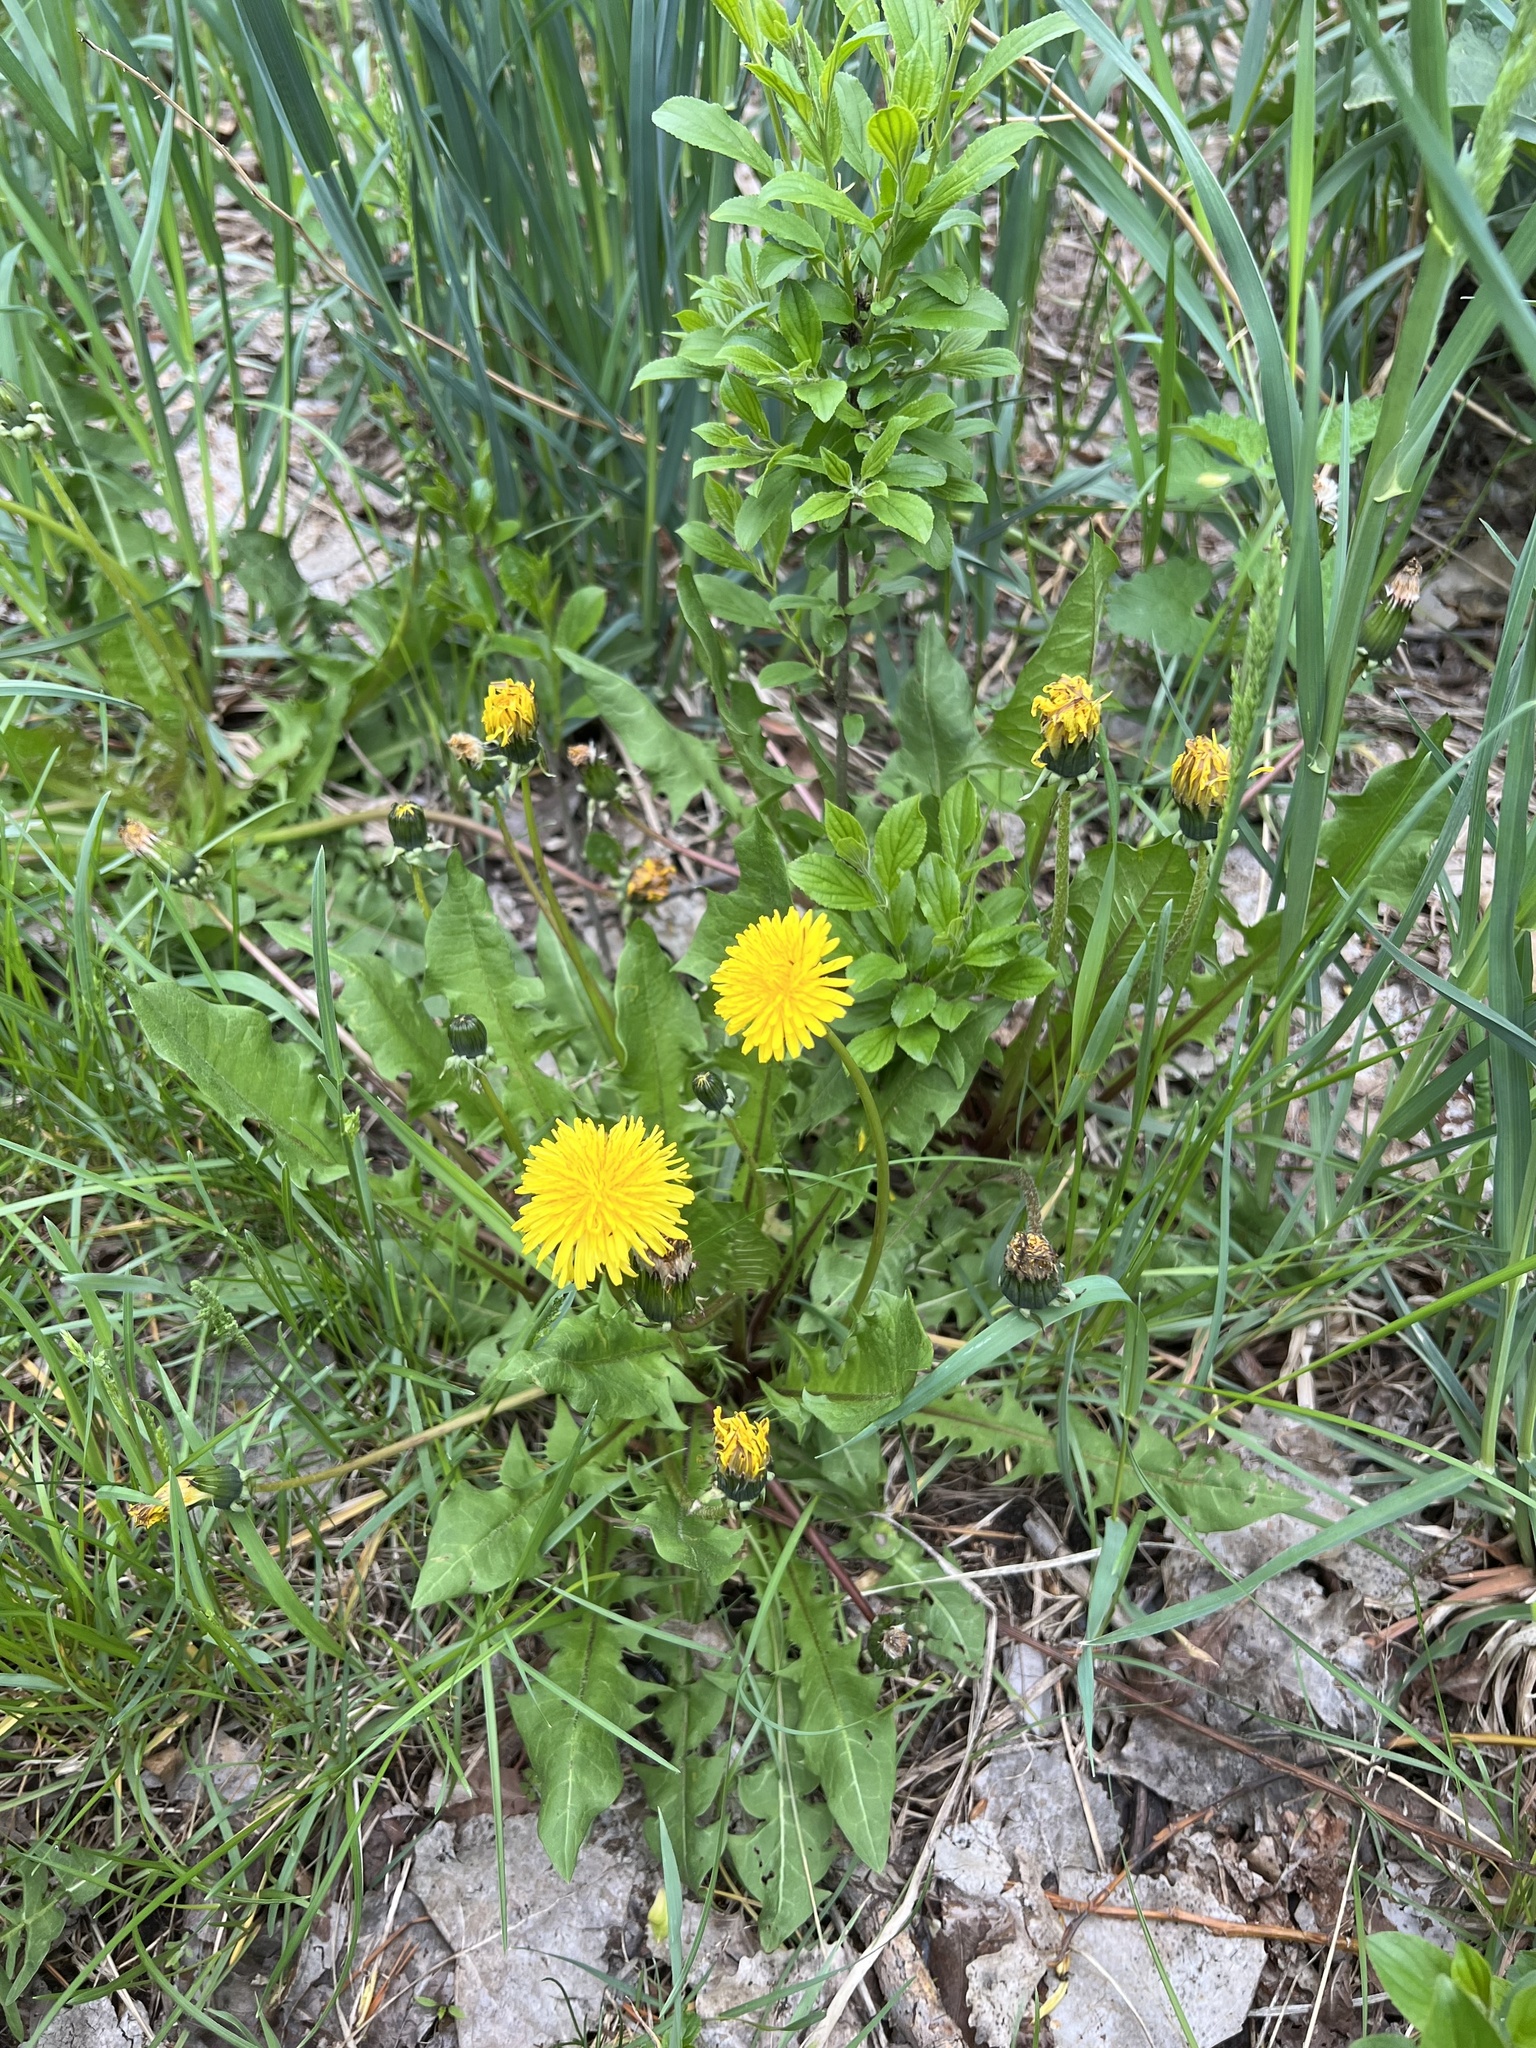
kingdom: Plantae
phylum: Tracheophyta
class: Magnoliopsida
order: Asterales
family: Asteraceae
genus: Taraxacum
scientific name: Taraxacum officinale
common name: Common dandelion
